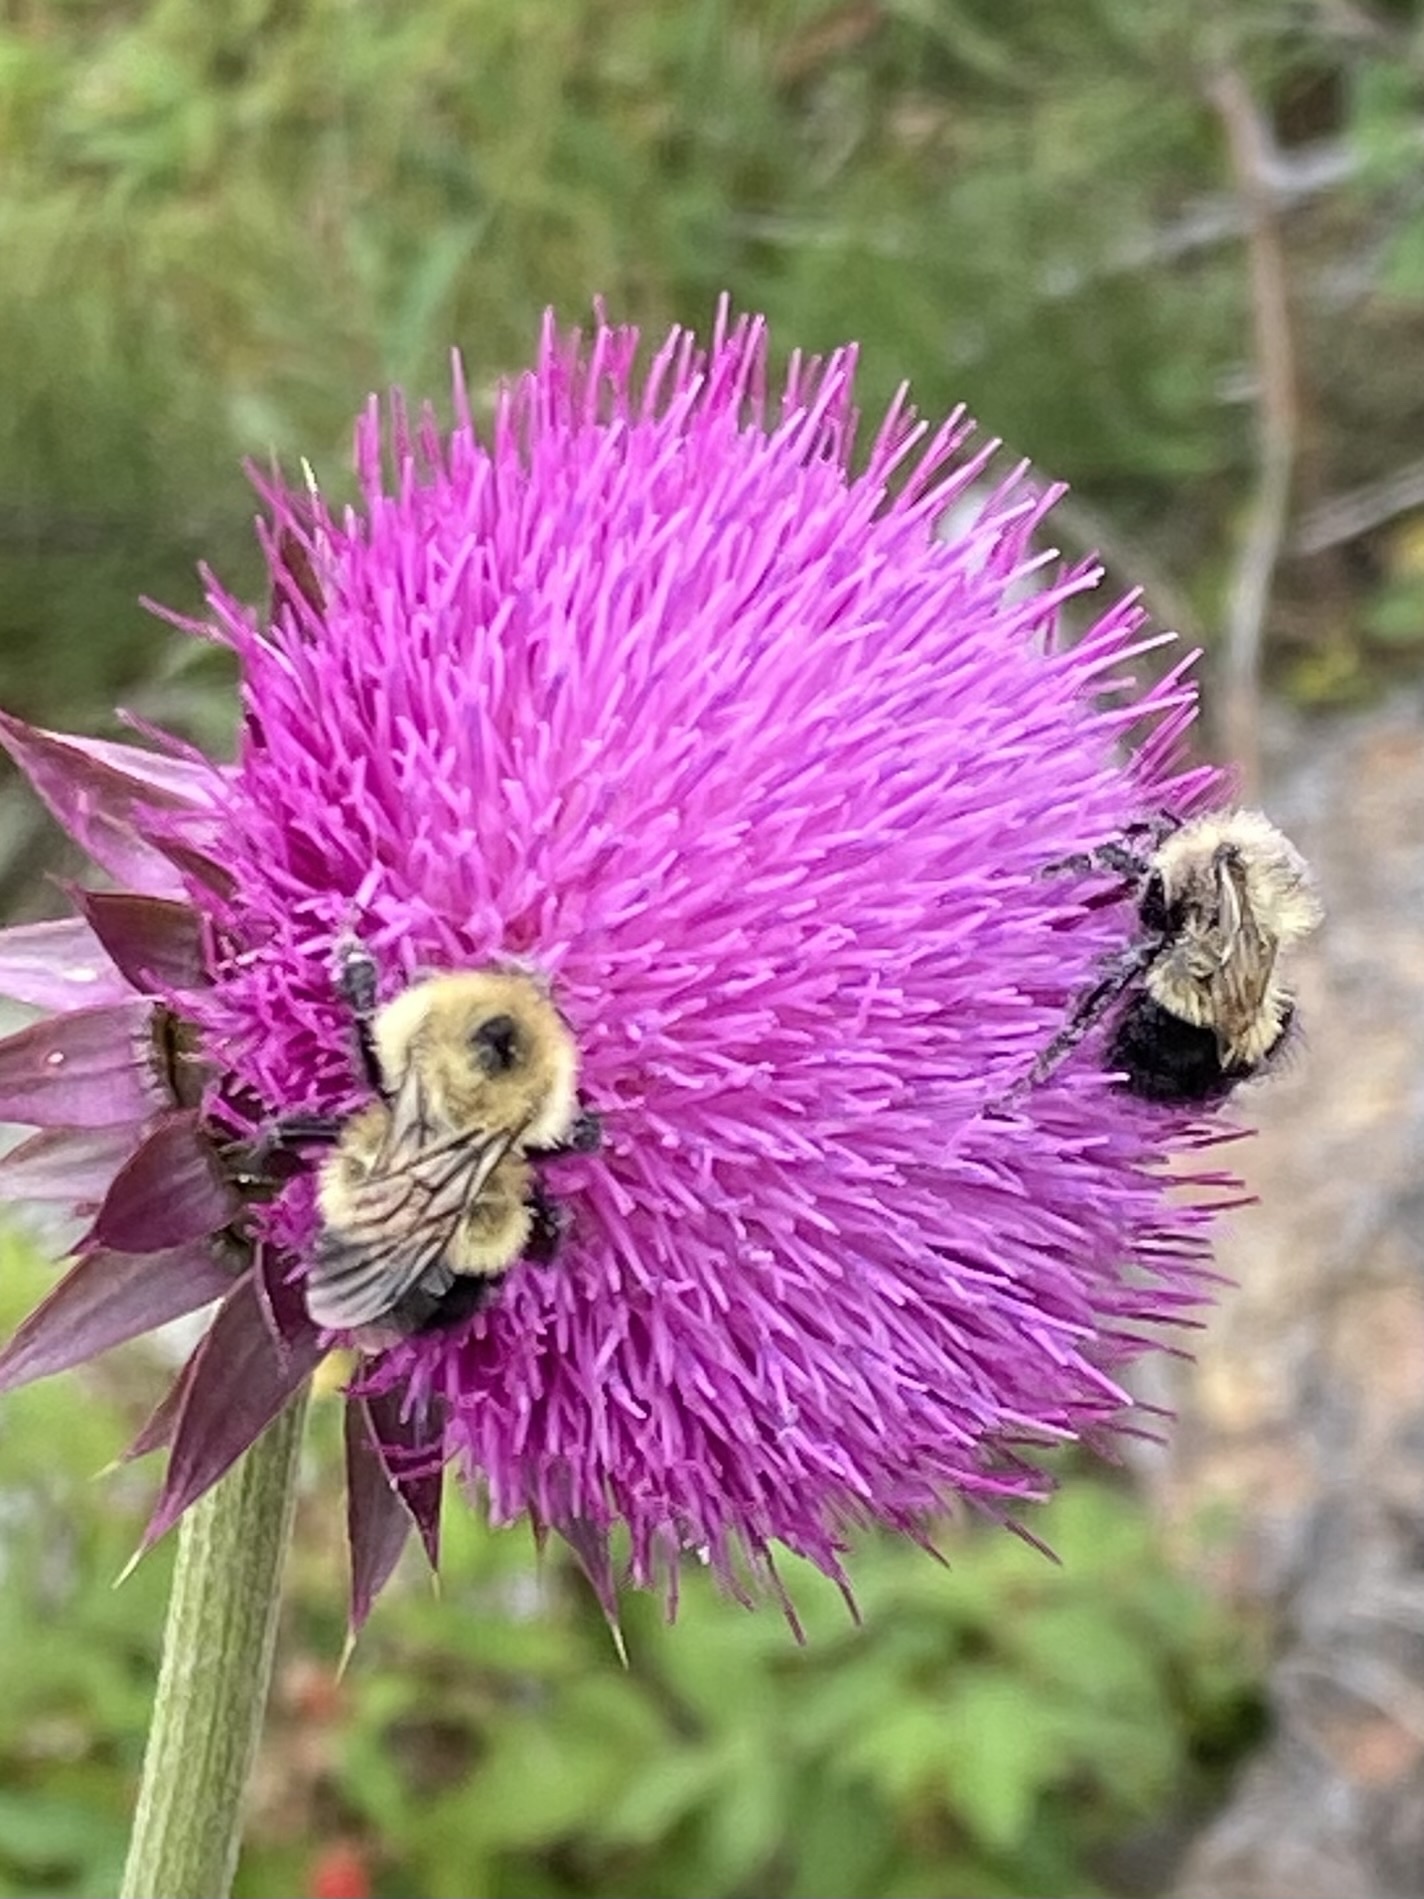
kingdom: Animalia
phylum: Arthropoda
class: Insecta
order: Hymenoptera
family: Apidae
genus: Bombus
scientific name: Bombus vagans
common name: Half-black bumble bee
